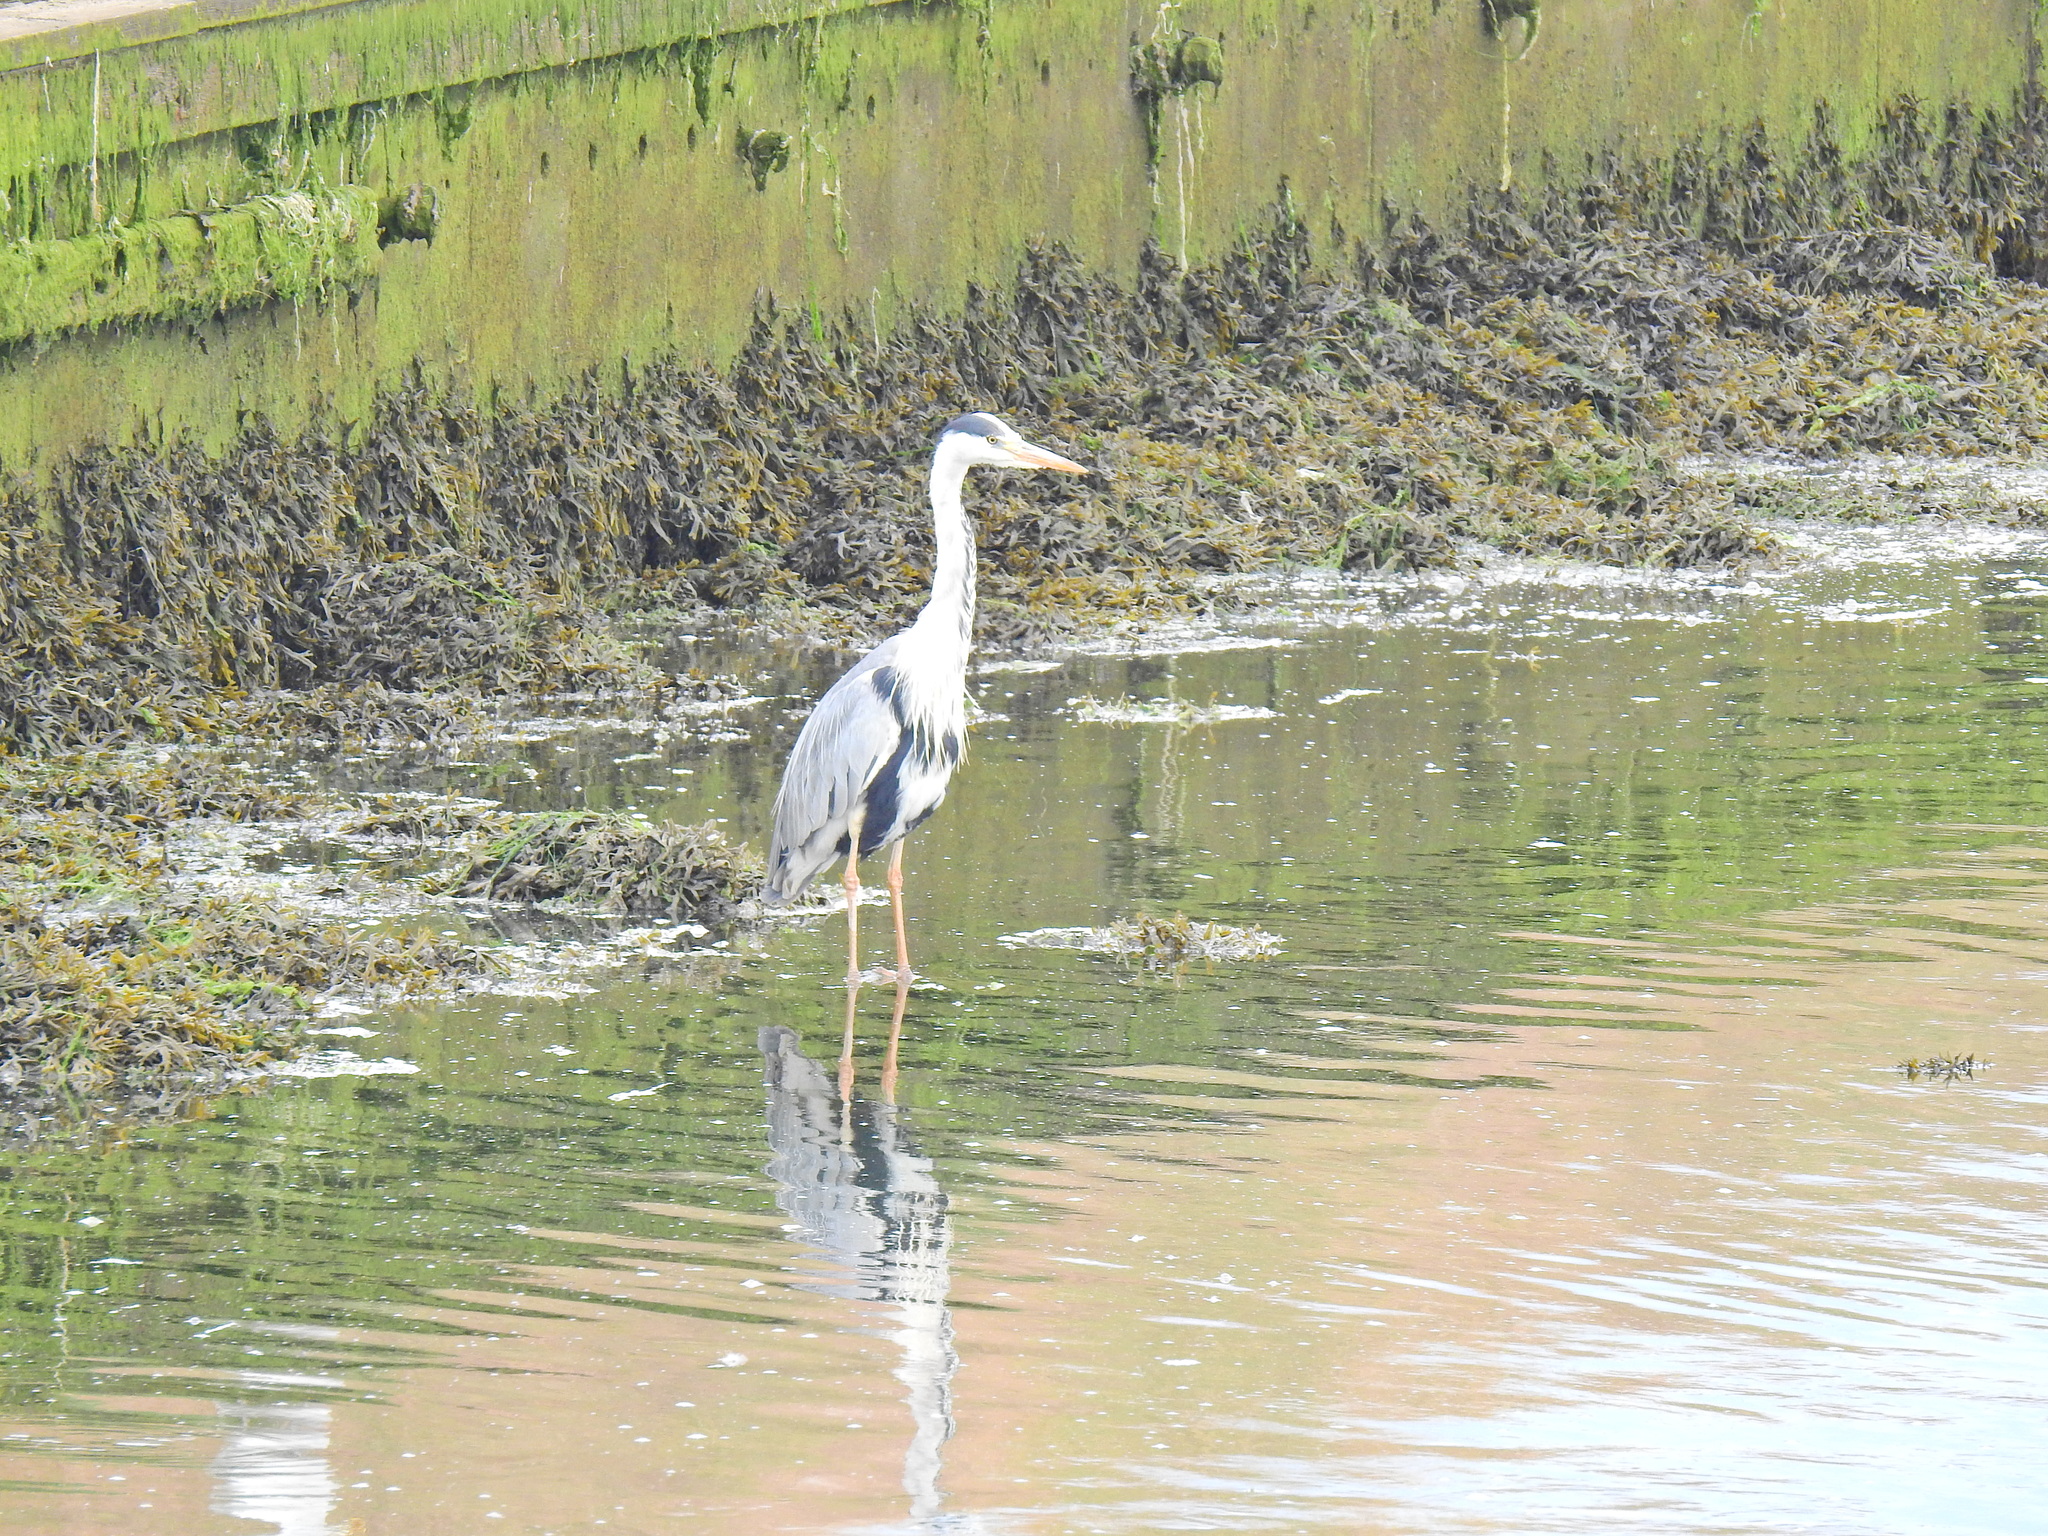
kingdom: Animalia
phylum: Chordata
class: Aves
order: Pelecaniformes
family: Ardeidae
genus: Ardea
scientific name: Ardea cinerea
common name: Grey heron
